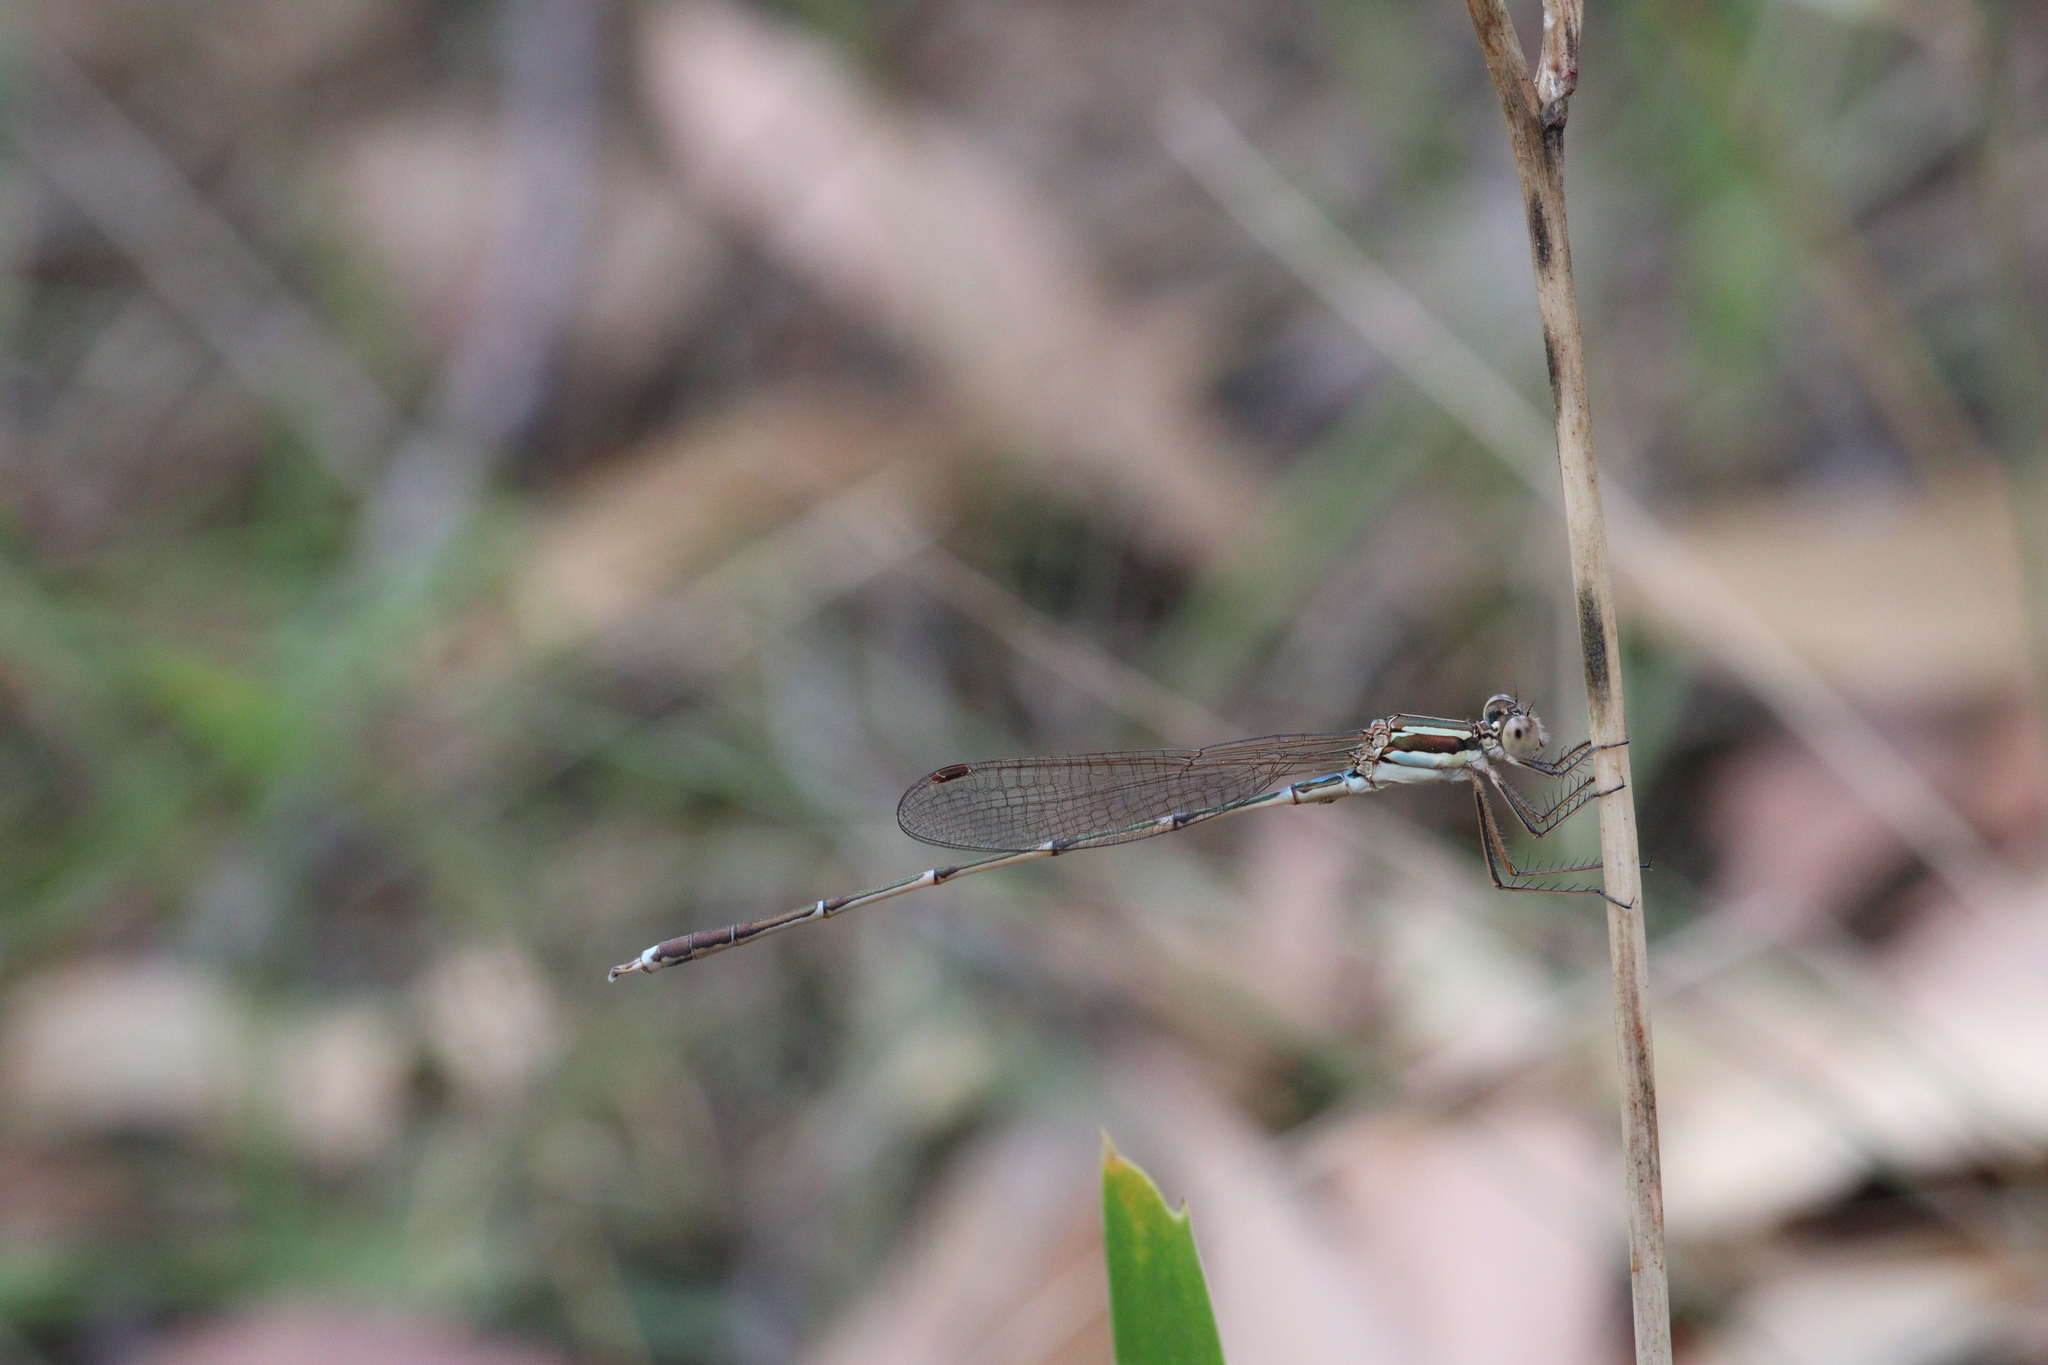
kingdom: Animalia
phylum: Arthropoda
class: Insecta
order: Odonata
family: Lestidae
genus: Austrolestes
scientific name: Austrolestes analis
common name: Slender ringtail
